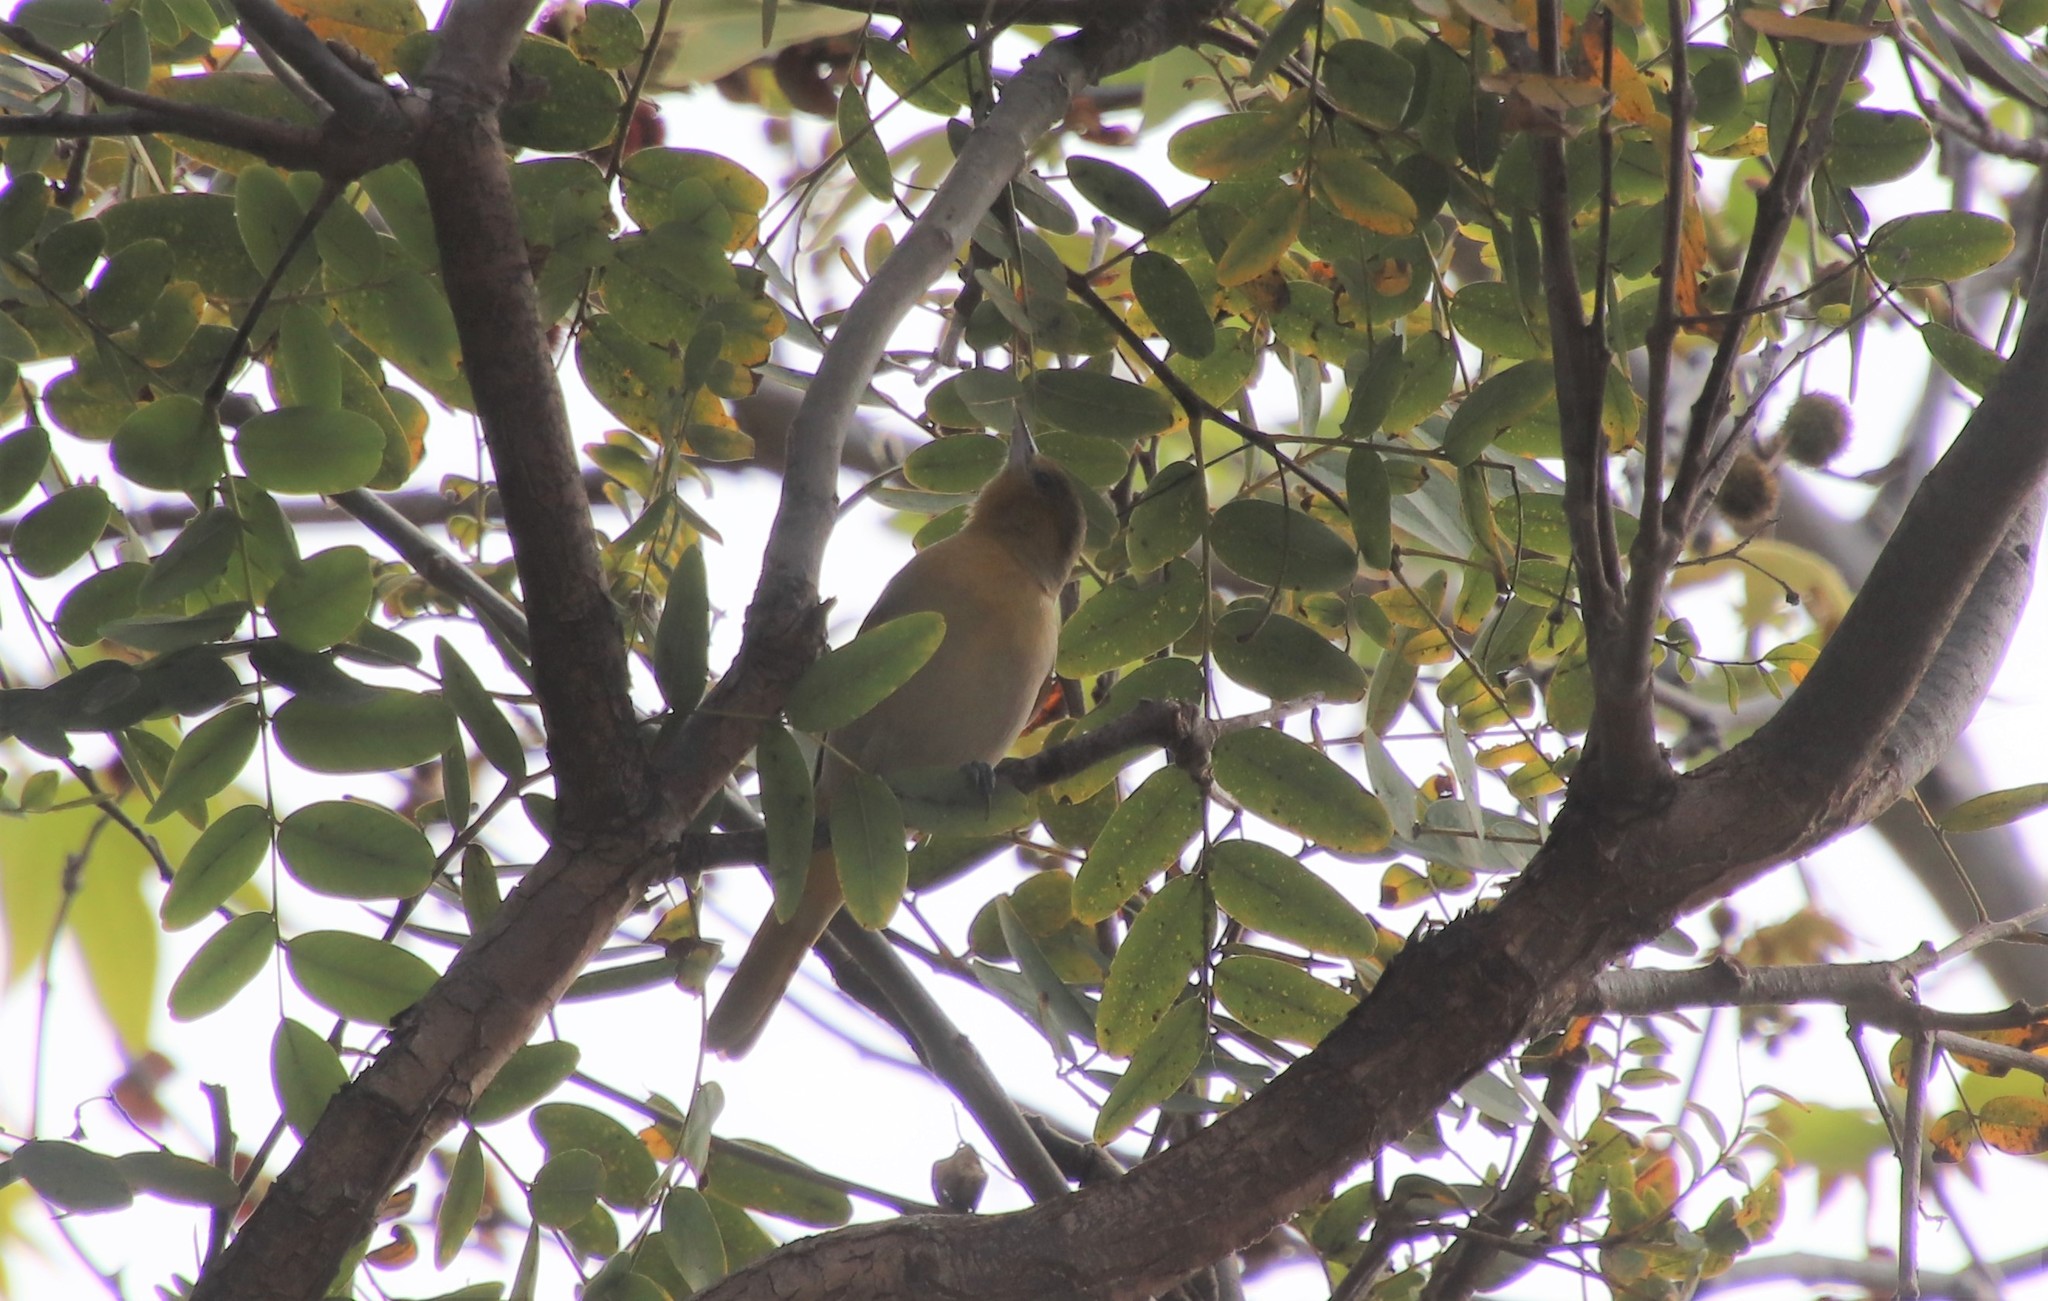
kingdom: Animalia
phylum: Chordata
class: Aves
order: Passeriformes
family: Icteridae
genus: Icterus
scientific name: Icterus bullockii
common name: Bullock's oriole
